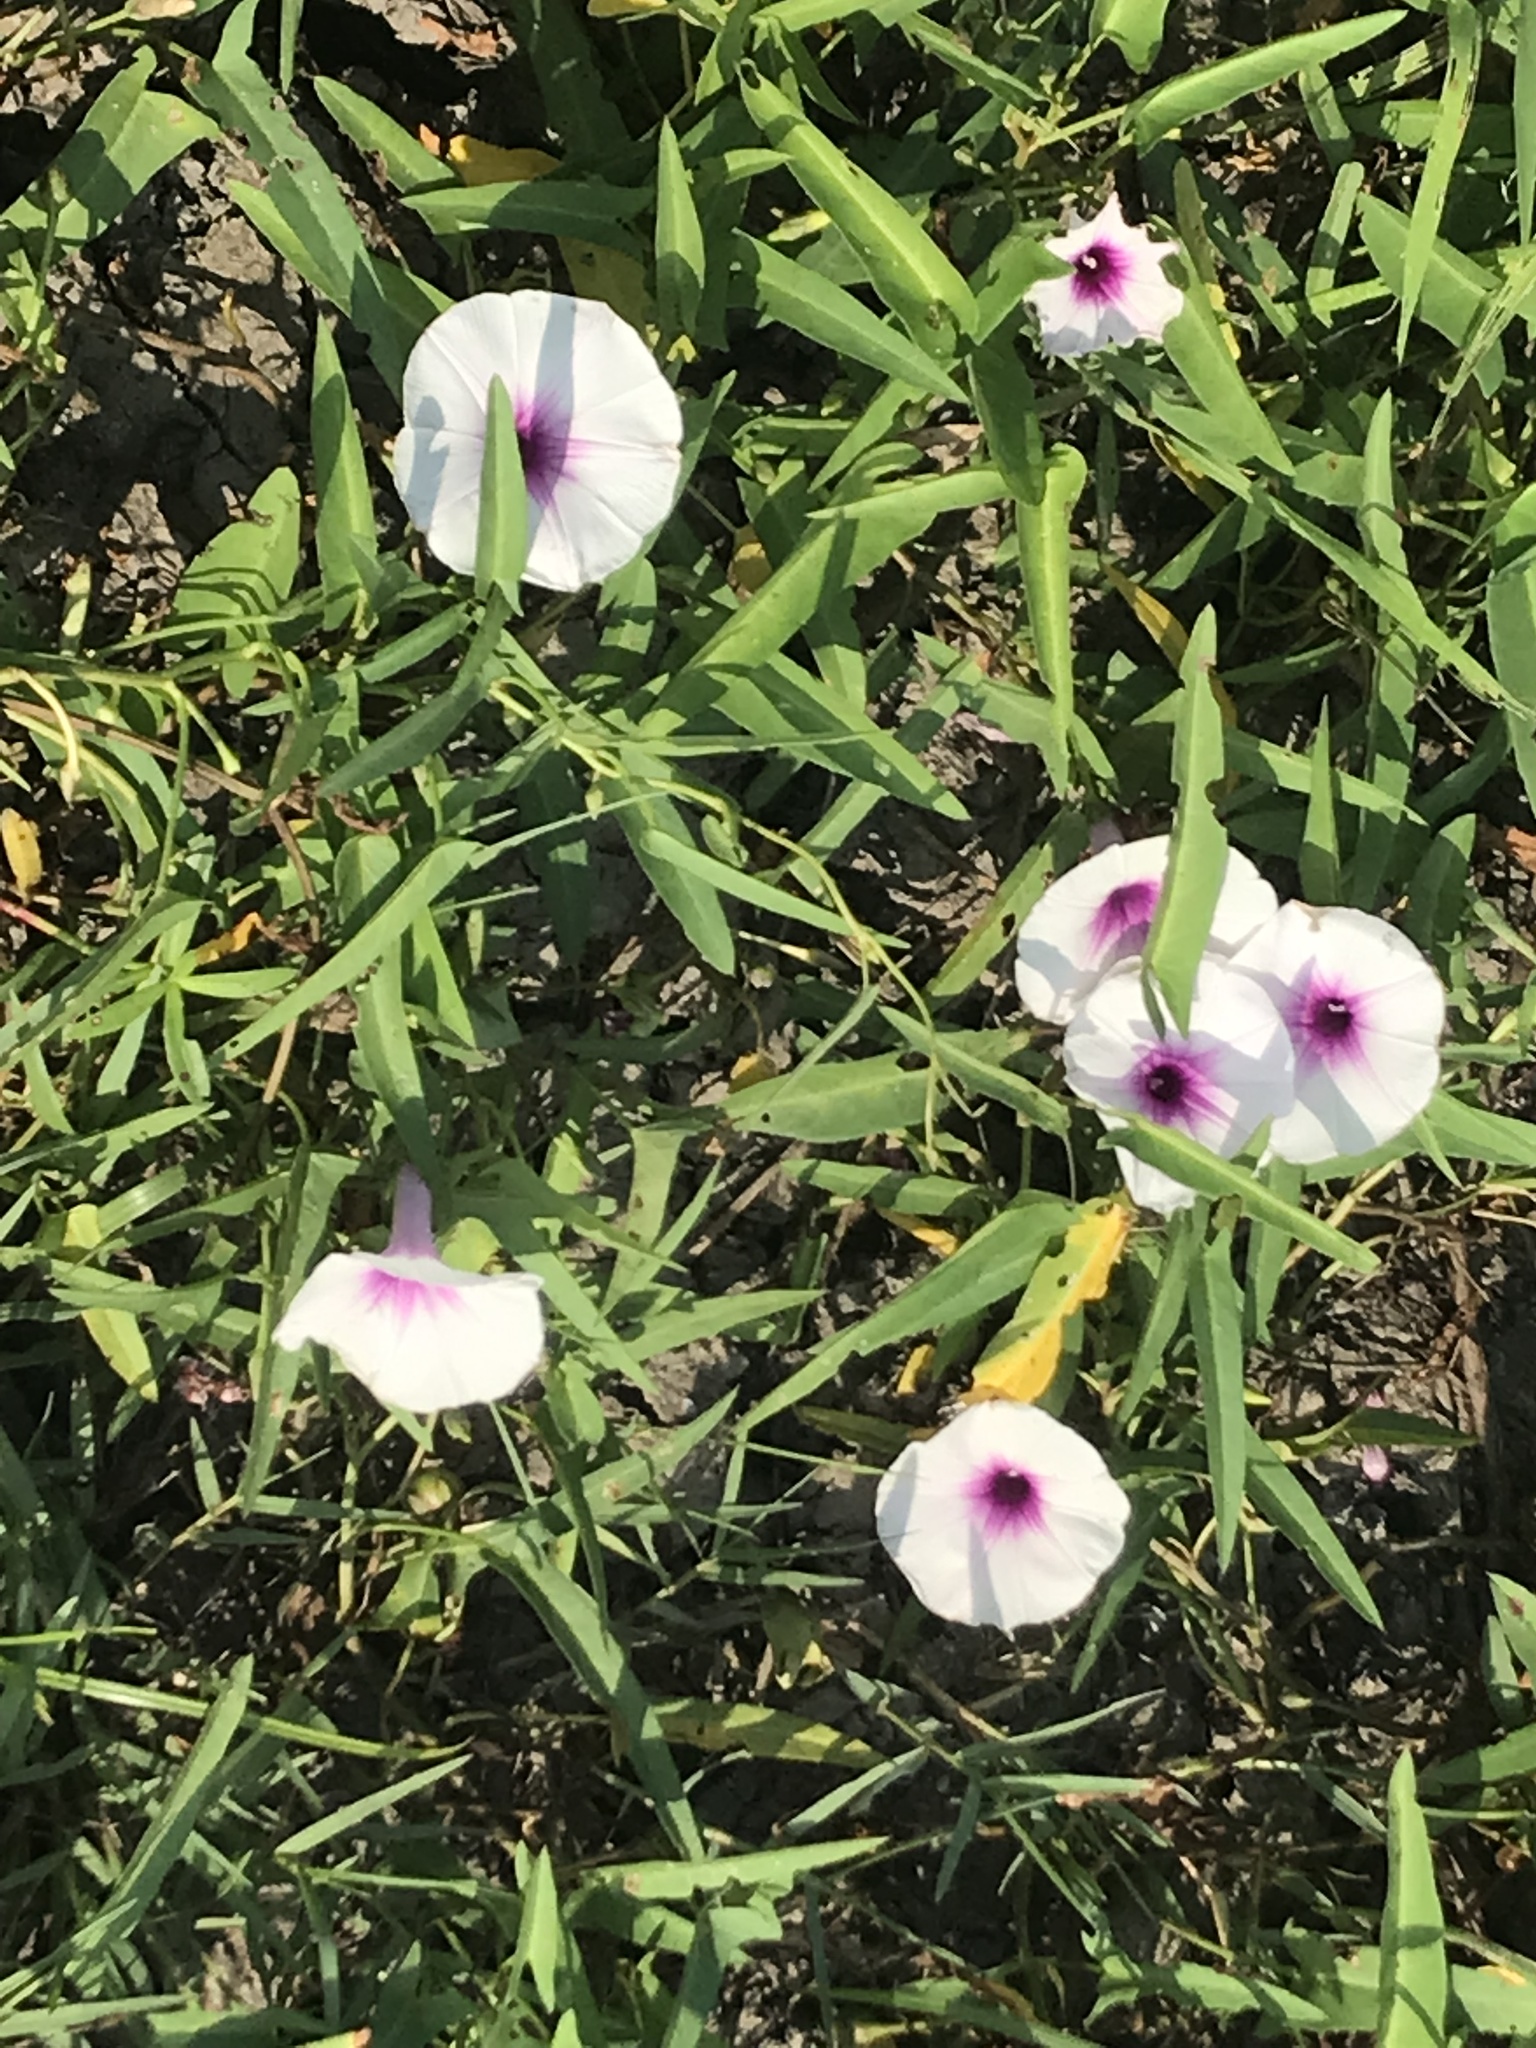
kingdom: Plantae
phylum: Tracheophyta
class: Magnoliopsida
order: Solanales
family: Convolvulaceae
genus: Ipomoea
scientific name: Ipomoea aquatica
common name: Swamp morning-glory
